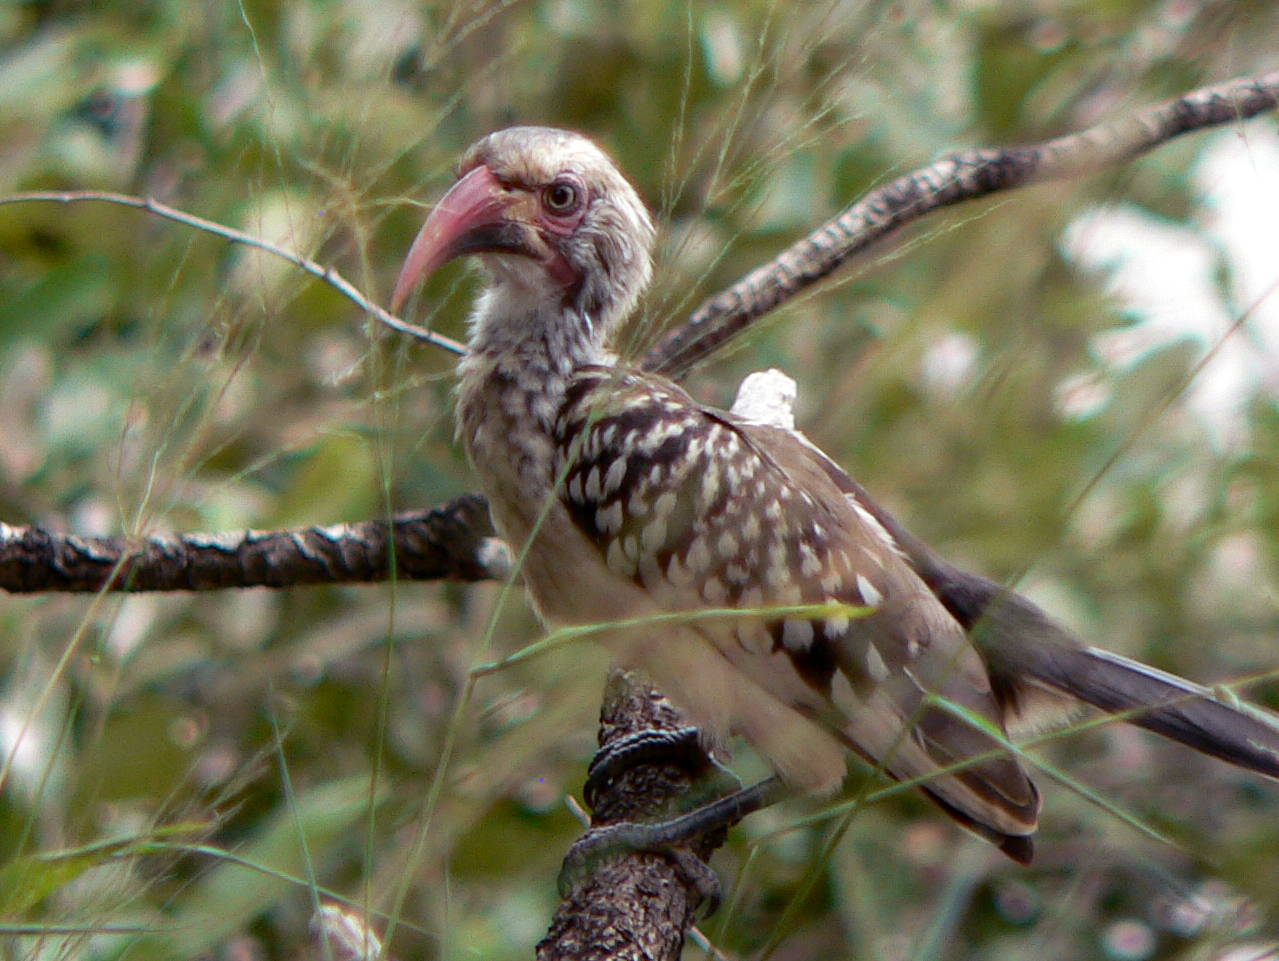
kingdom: Animalia
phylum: Chordata
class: Aves
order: Bucerotiformes
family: Bucerotidae
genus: Tockus
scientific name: Tockus rufirostris
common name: Southern red-billed hornbill
